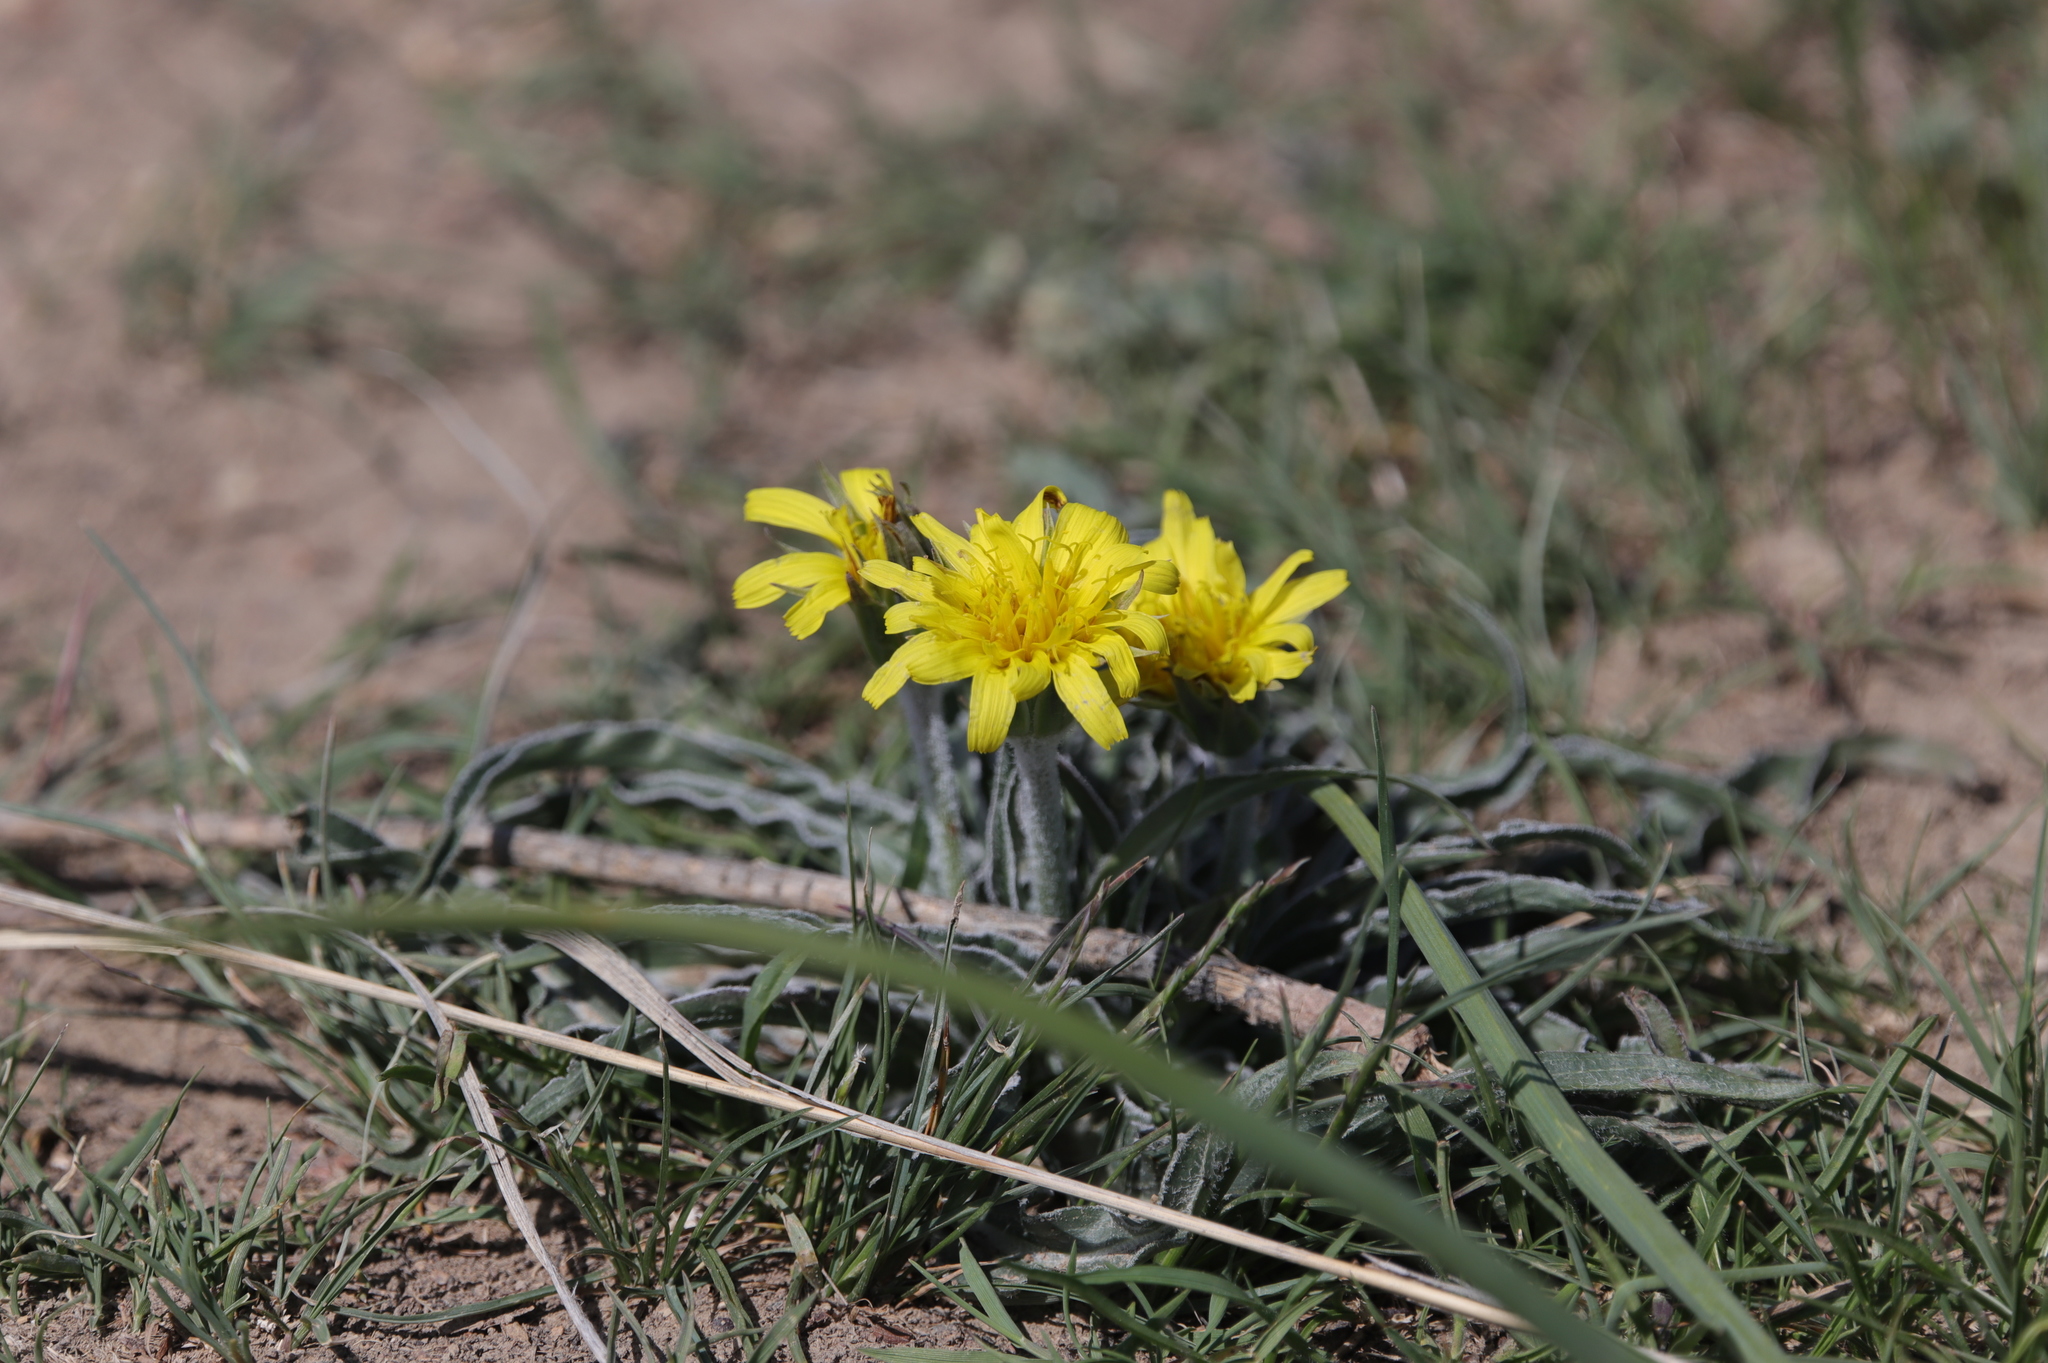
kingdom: Plantae
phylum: Tracheophyta
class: Magnoliopsida
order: Asterales
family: Asteraceae
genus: Microseris
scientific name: Microseris cuspidata
